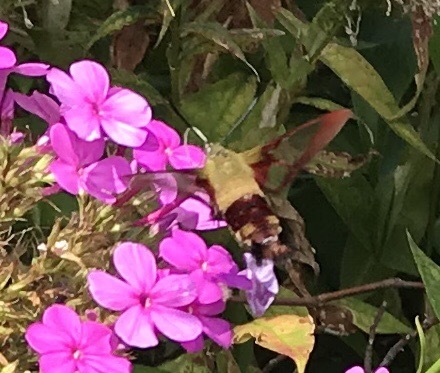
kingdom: Animalia
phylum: Arthropoda
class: Insecta
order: Lepidoptera
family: Sphingidae
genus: Hemaris
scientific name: Hemaris thysbe
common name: Common clear-wing
